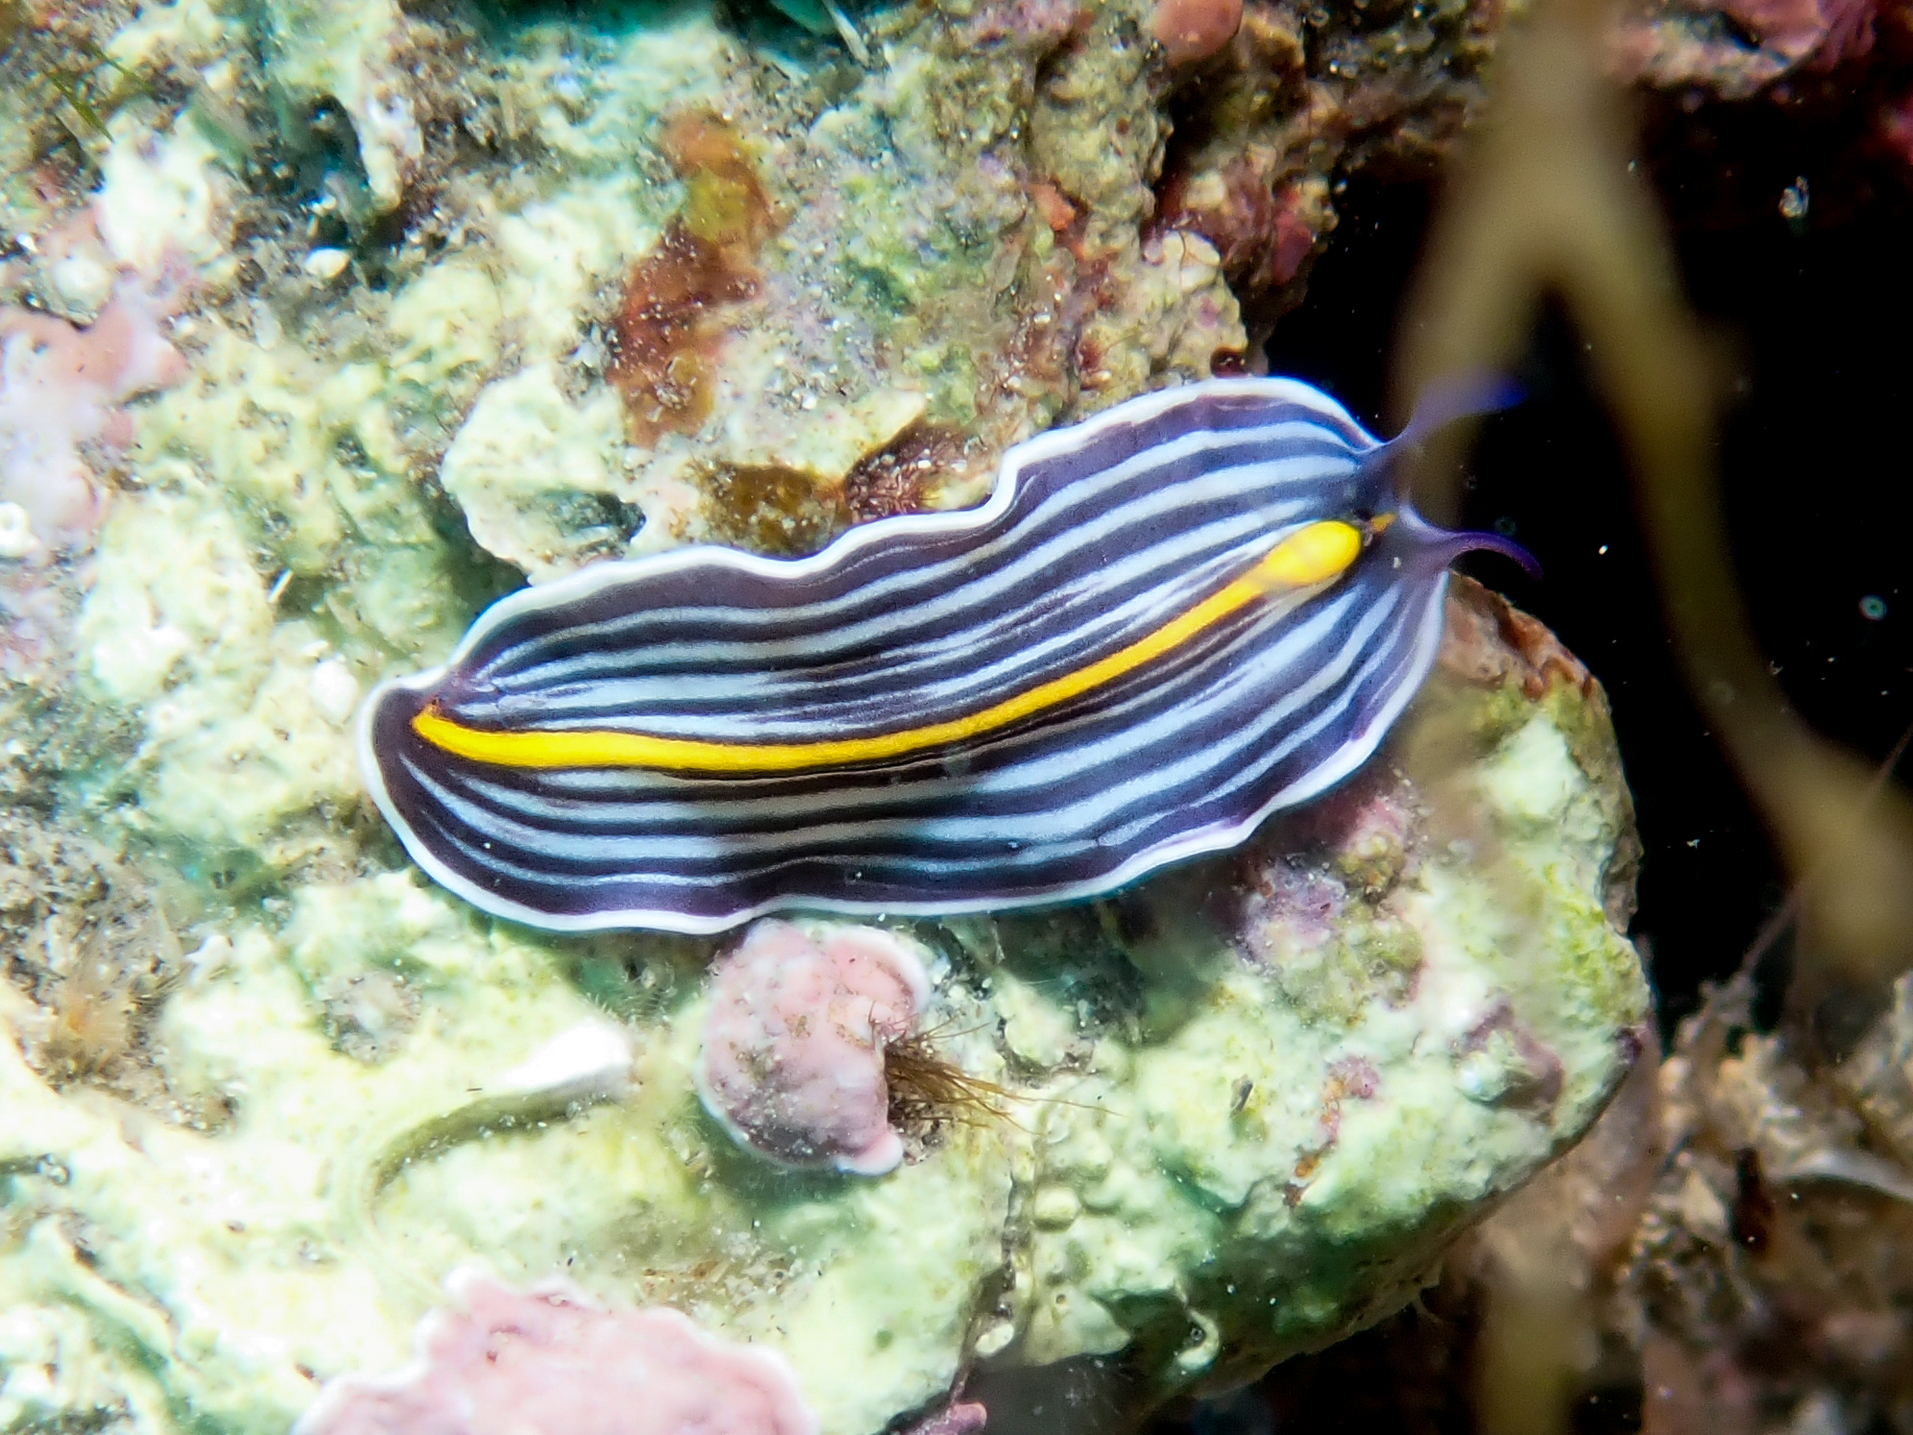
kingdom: Animalia
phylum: Platyhelminthes
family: Euryleptidae
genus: Prostheceraeus
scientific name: Prostheceraeus giesbrechtii
